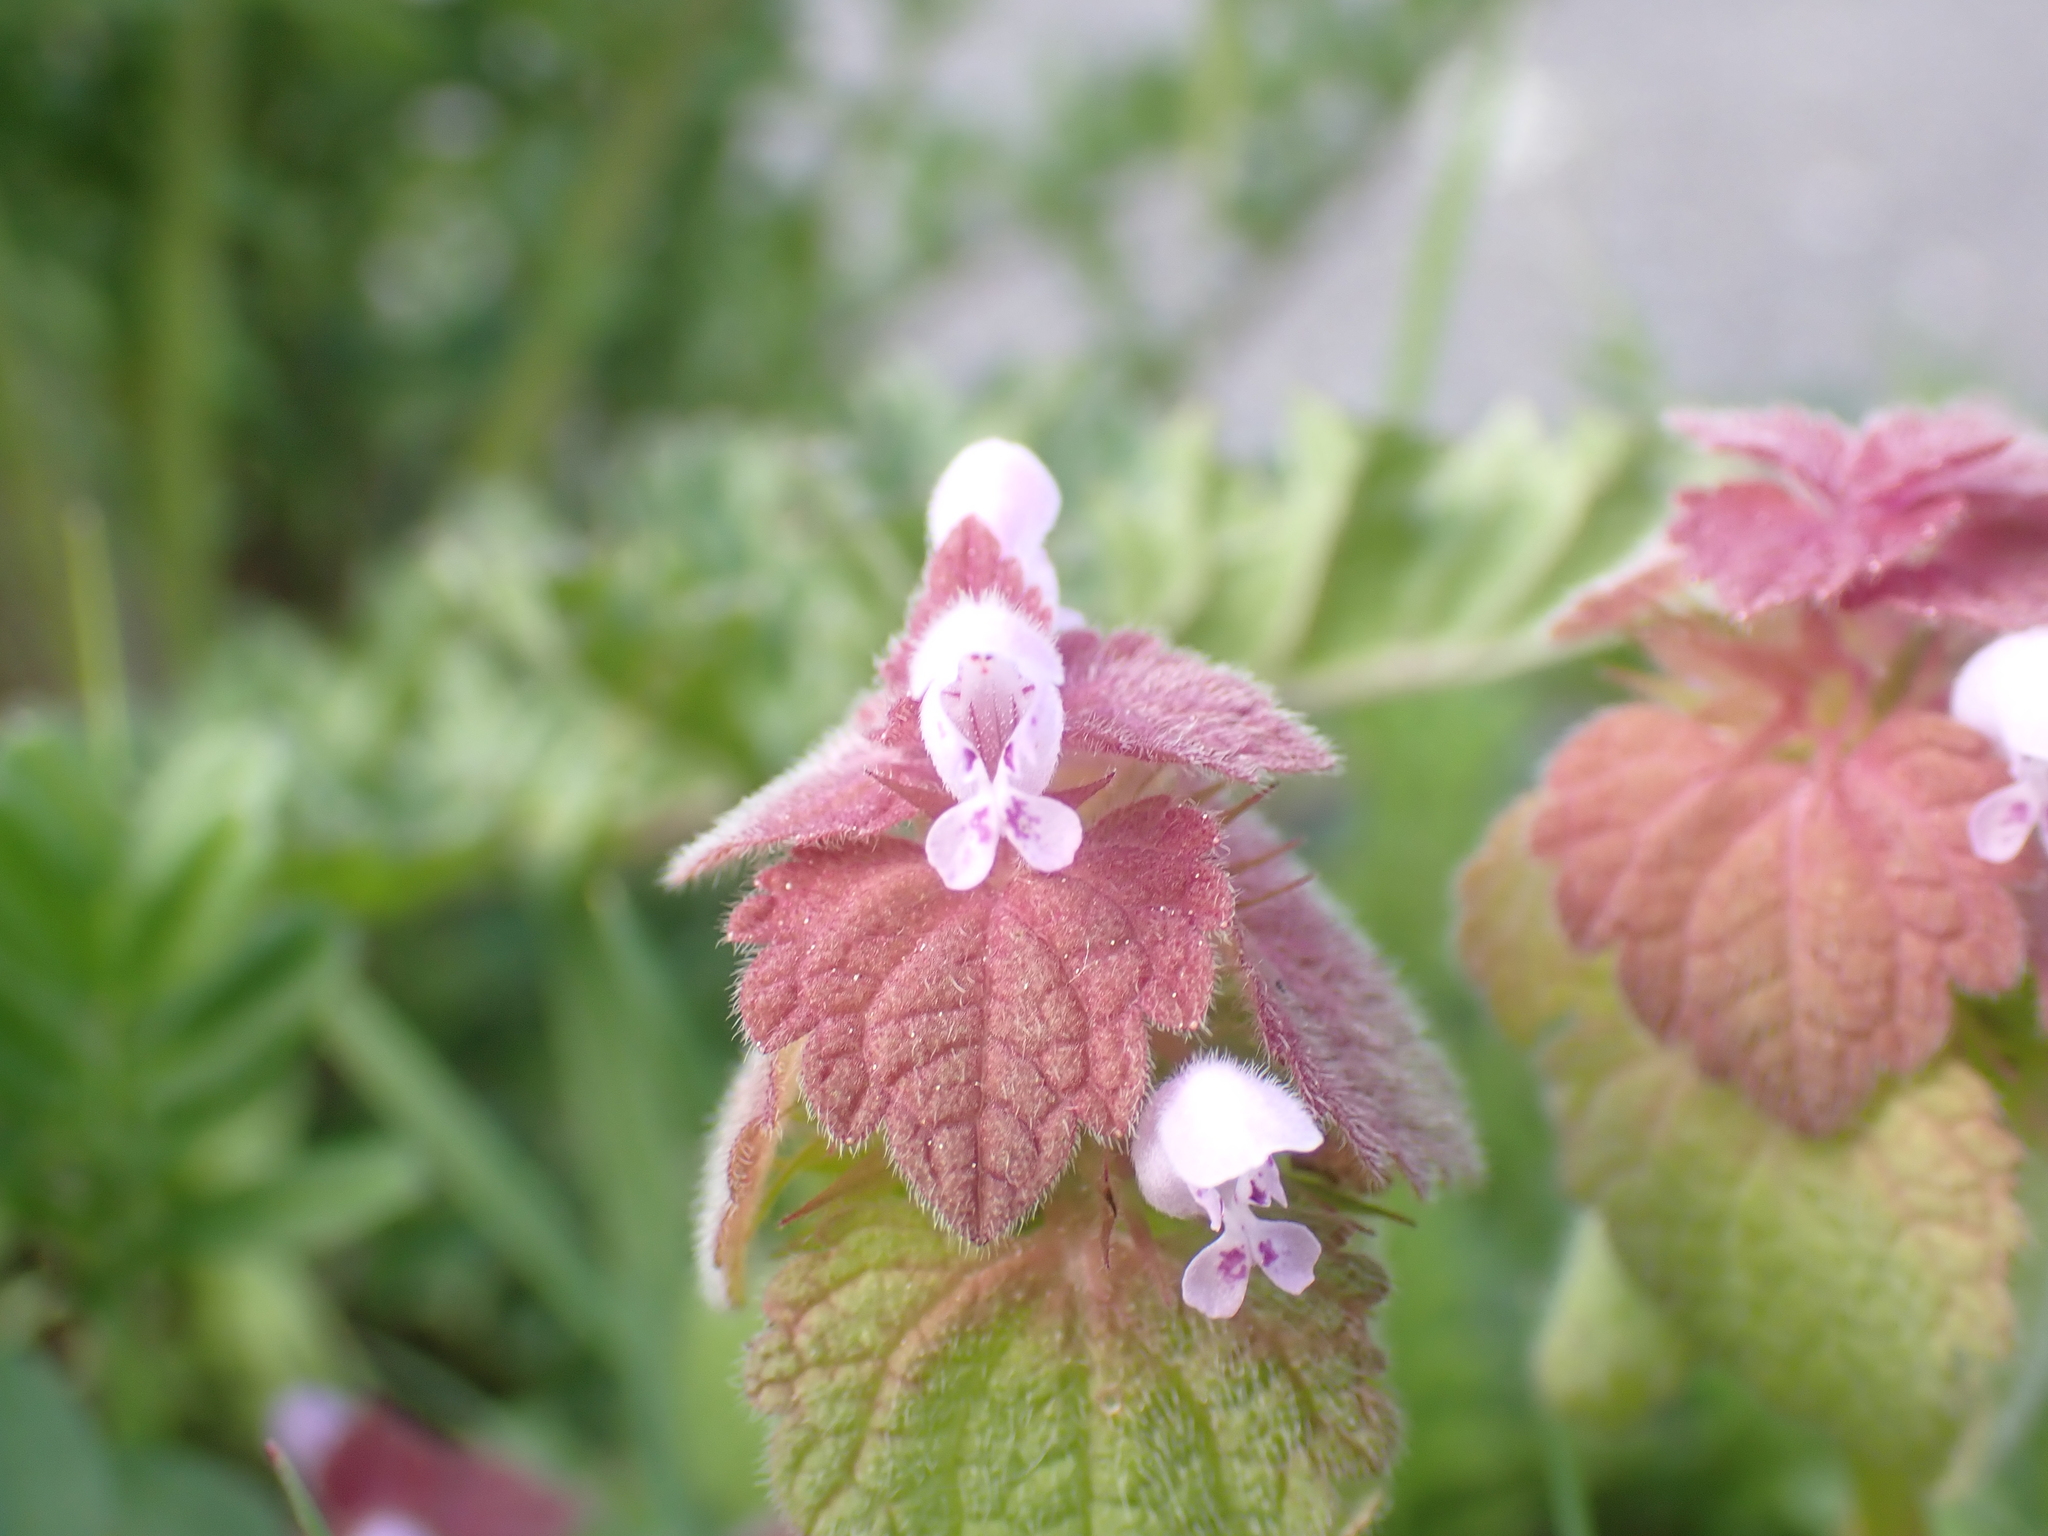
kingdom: Plantae
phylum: Tracheophyta
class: Magnoliopsida
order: Lamiales
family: Lamiaceae
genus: Lamium
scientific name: Lamium purpureum
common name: Red dead-nettle
